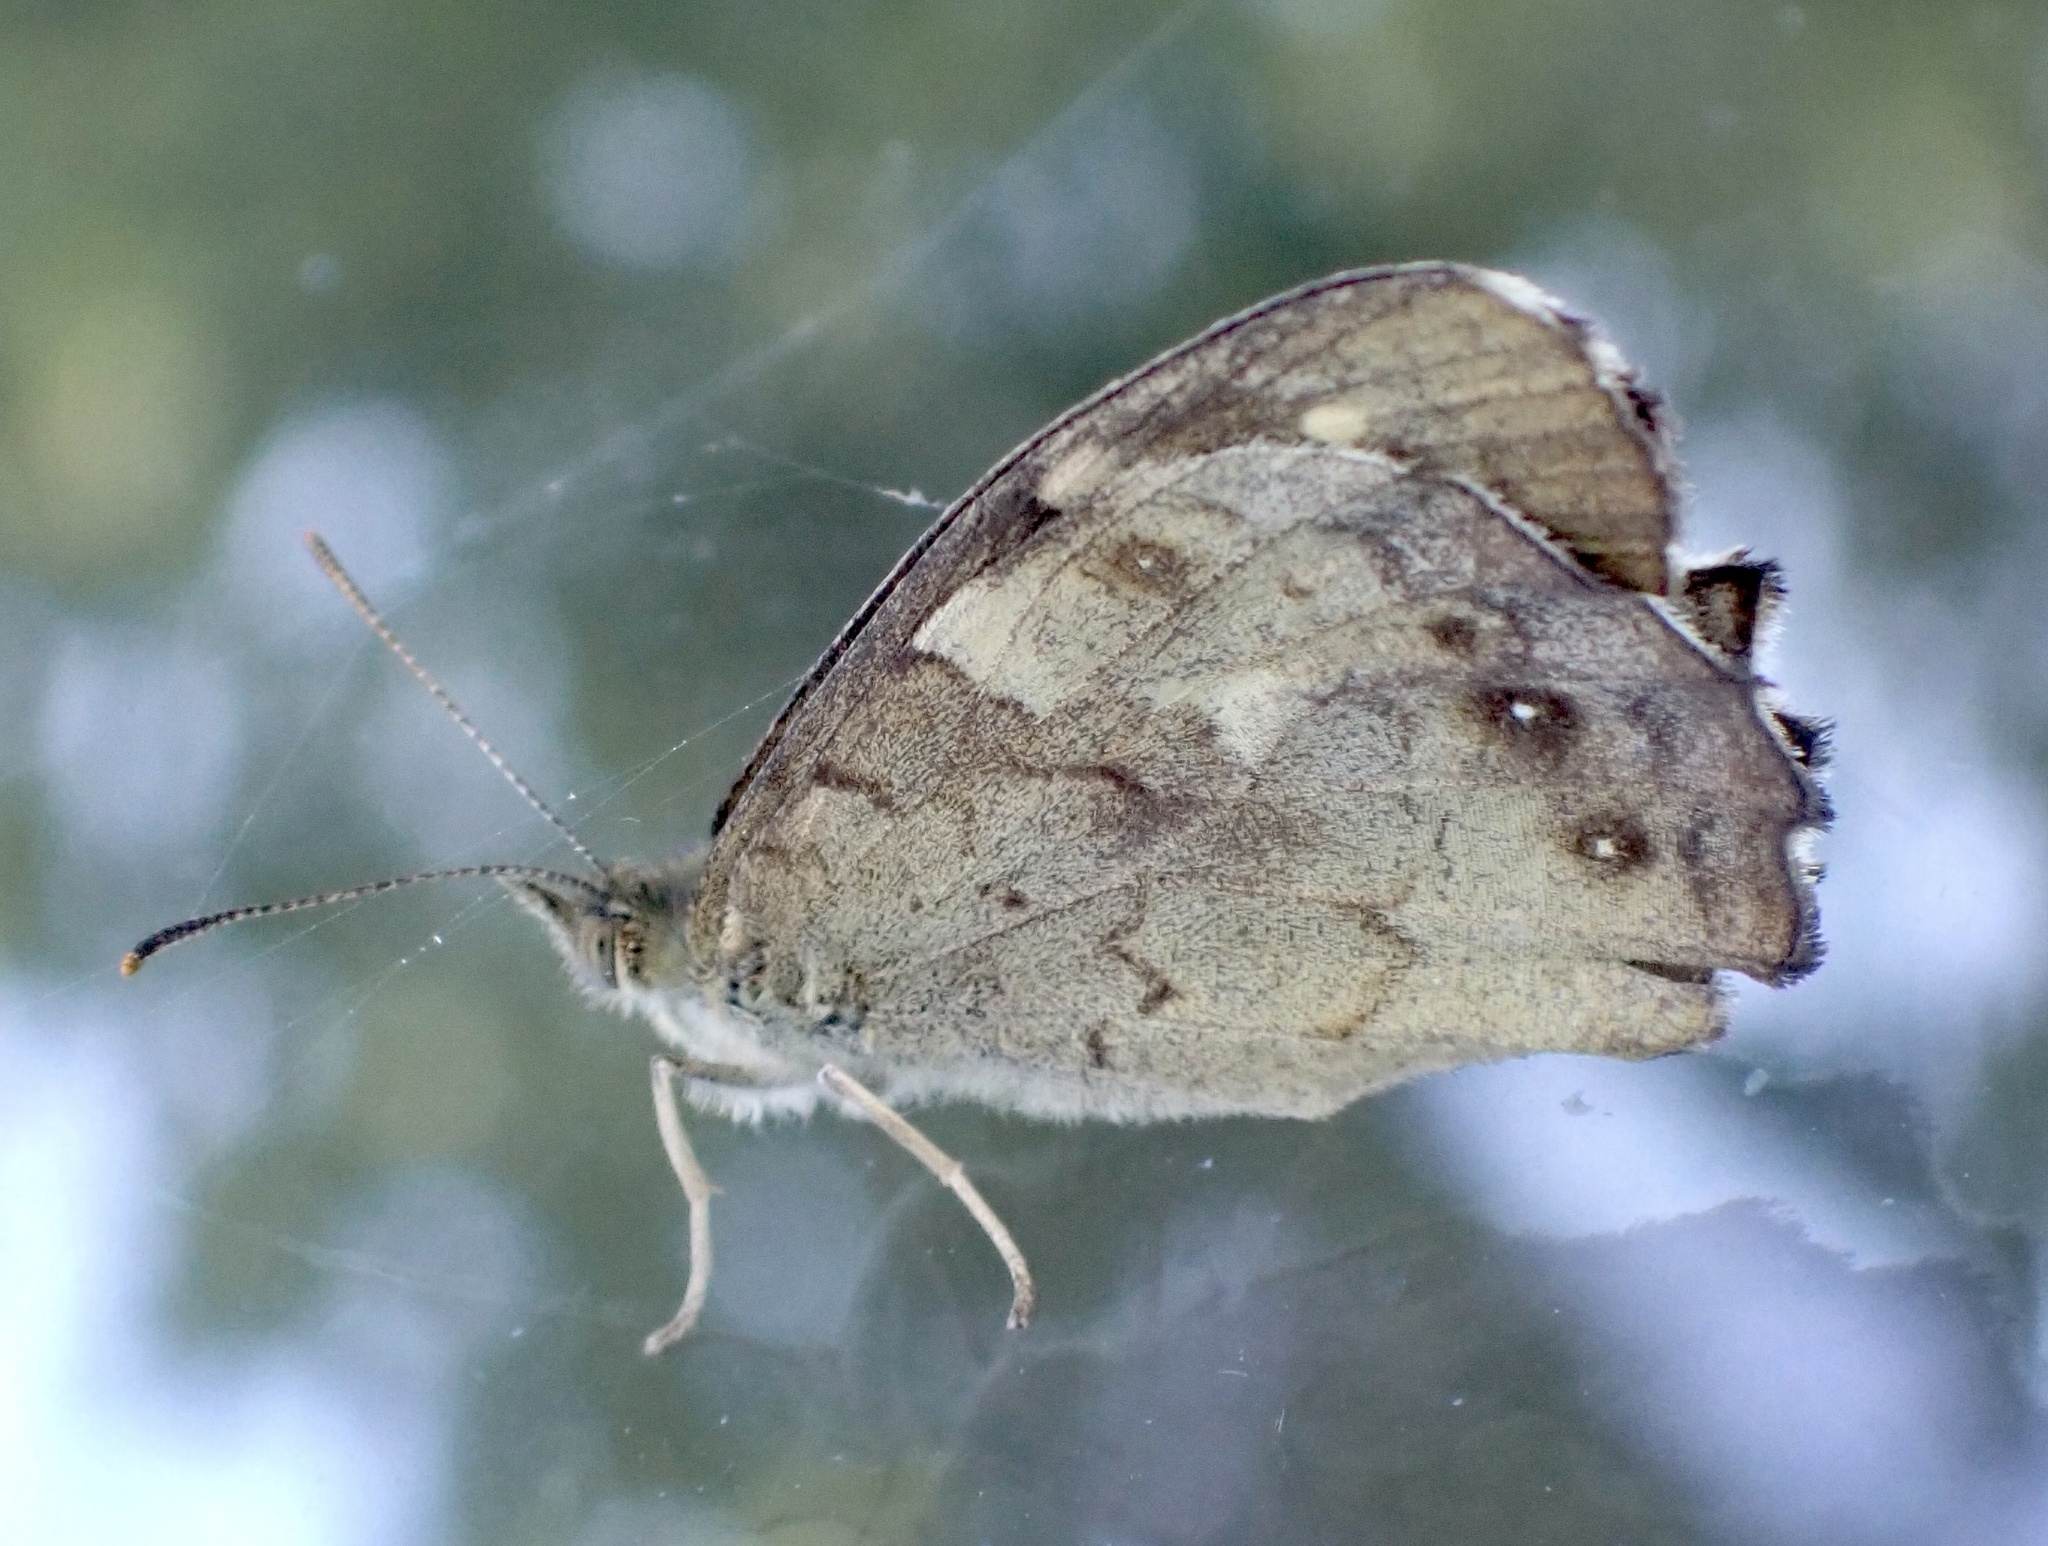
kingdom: Animalia
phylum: Arthropoda
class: Insecta
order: Lepidoptera
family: Nymphalidae
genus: Pararge
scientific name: Pararge aegeria
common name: Speckled wood
